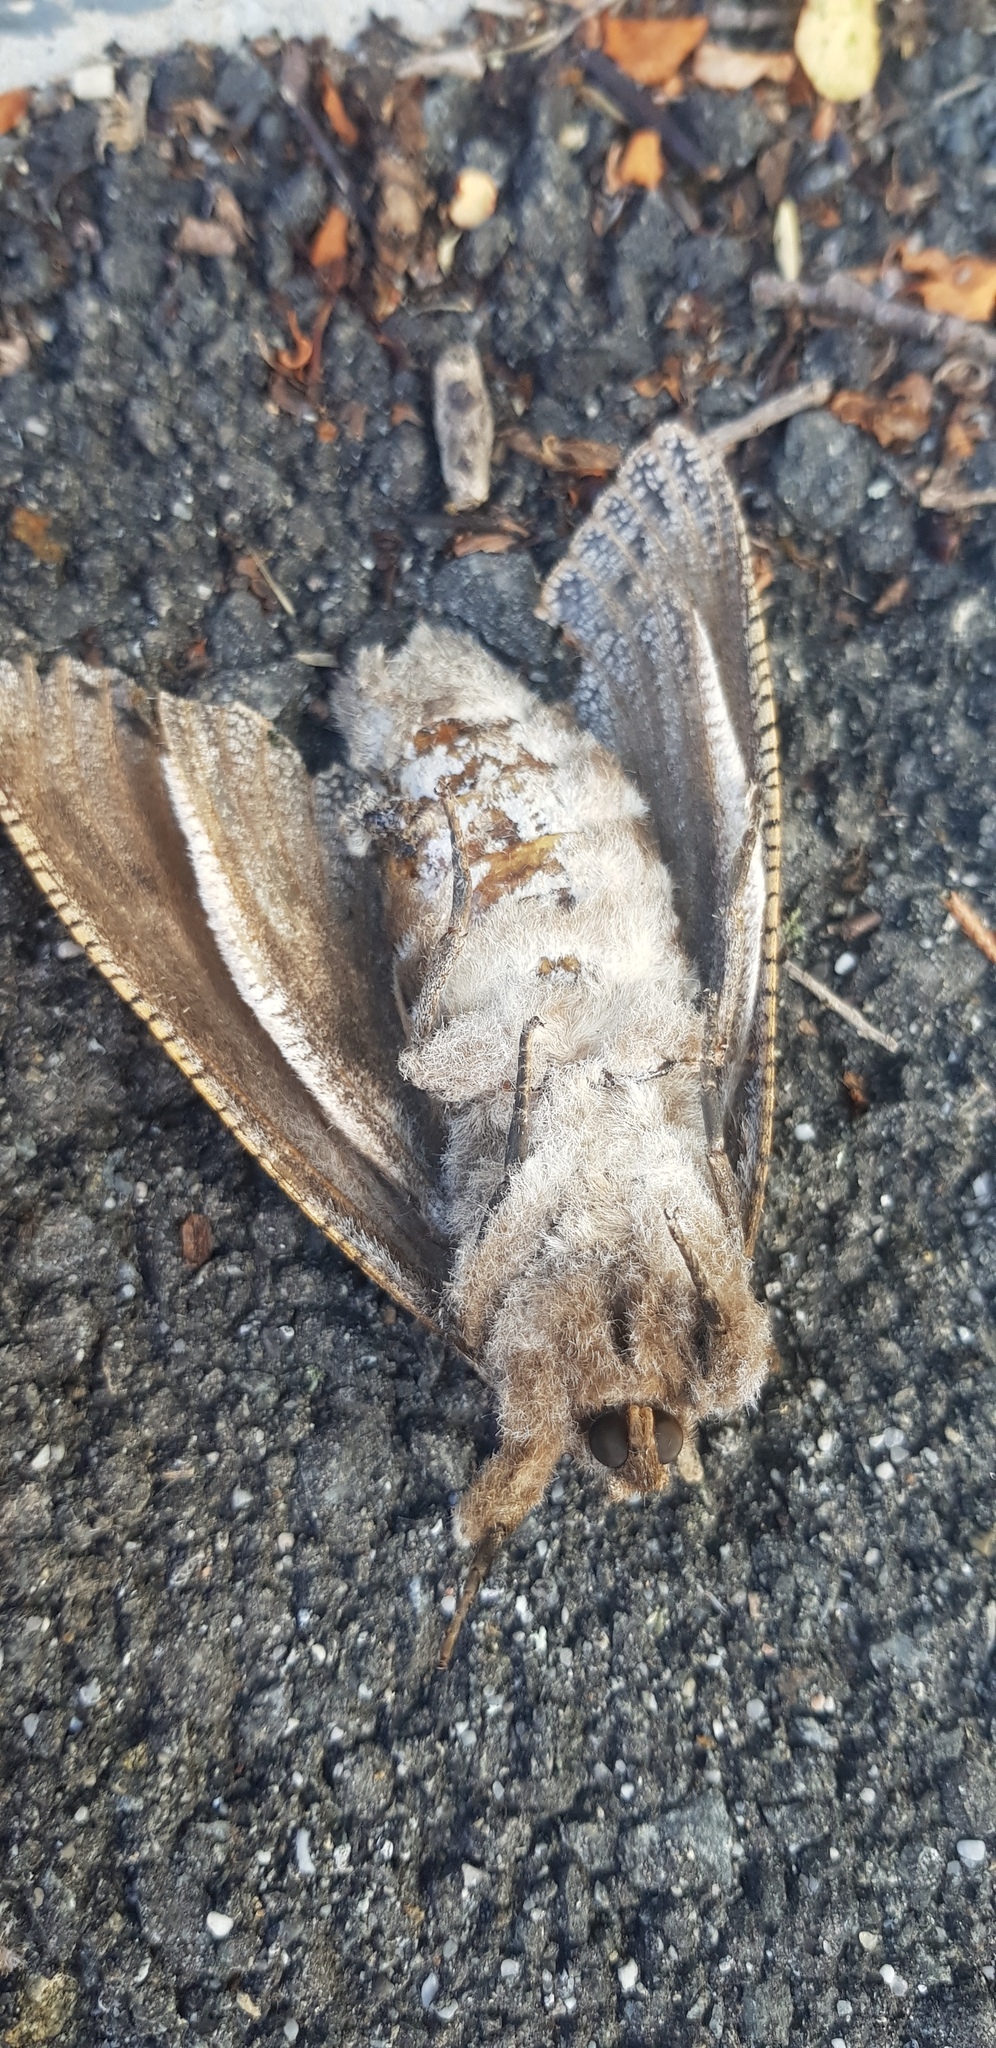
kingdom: Animalia
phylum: Arthropoda
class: Insecta
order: Lepidoptera
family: Cossidae
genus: Endoxyla
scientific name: Endoxyla liturata
